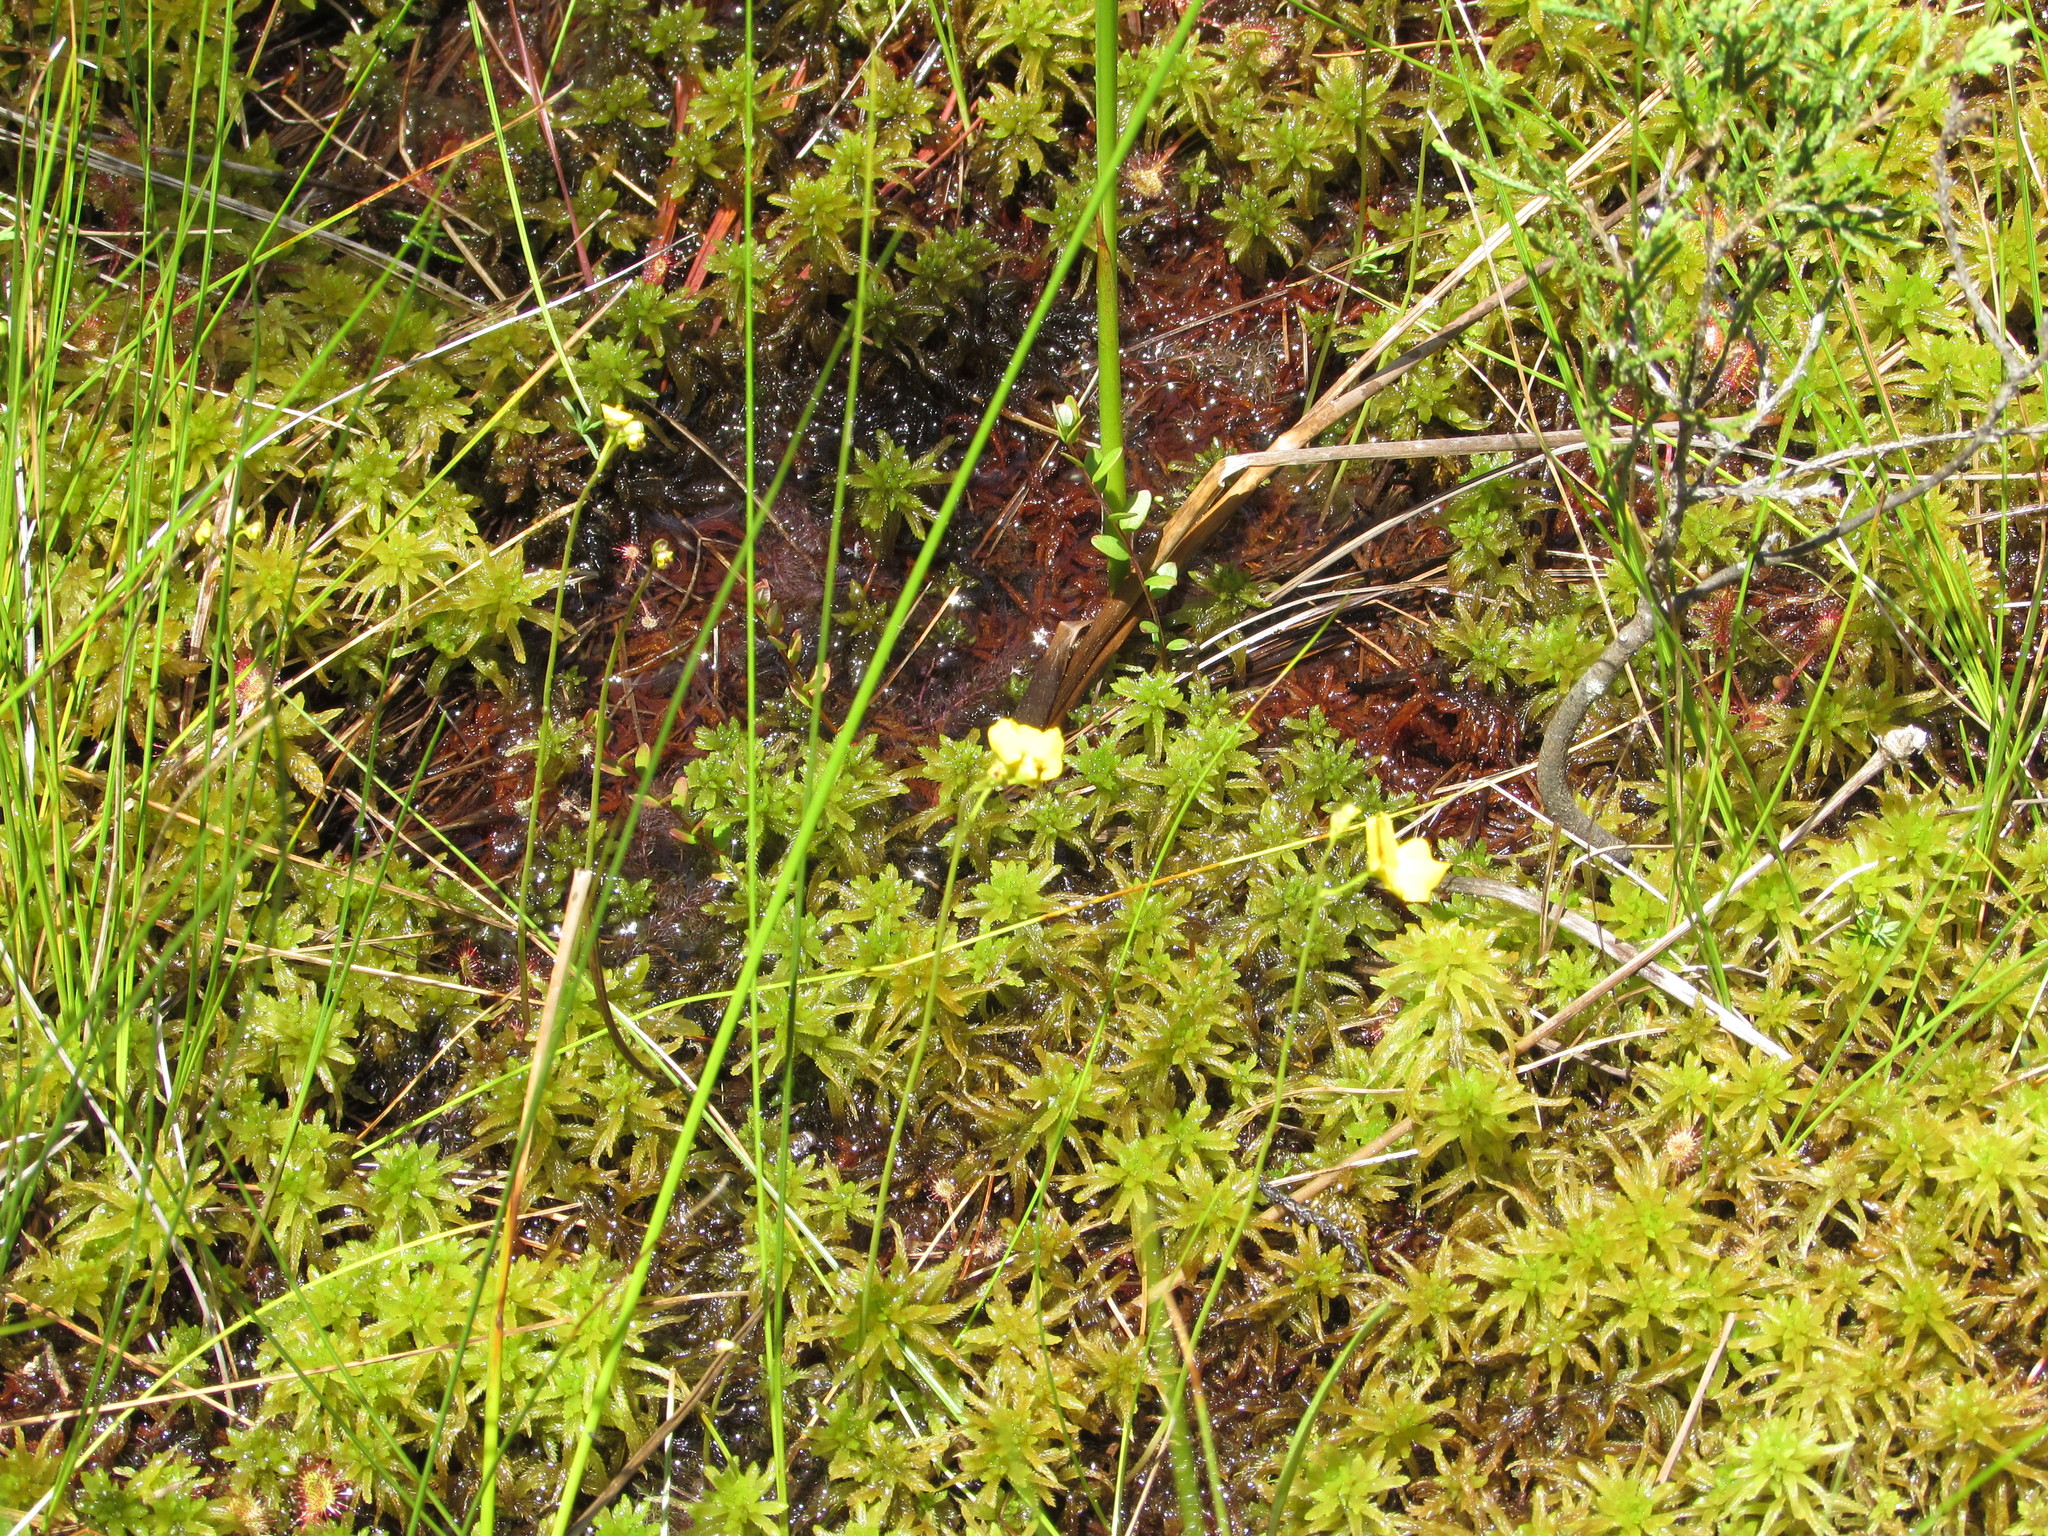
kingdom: Plantae
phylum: Tracheophyta
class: Magnoliopsida
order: Lamiales
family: Lentibulariaceae
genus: Utricularia
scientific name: Utricularia gibba
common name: Humped bladderwort
